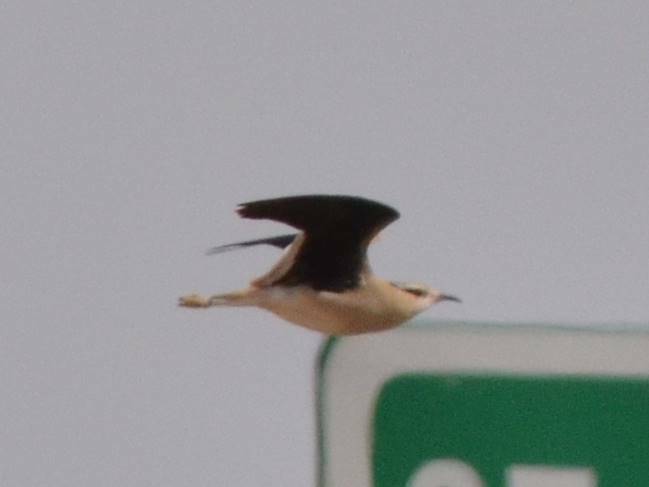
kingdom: Animalia
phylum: Chordata
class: Aves
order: Charadriiformes
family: Glareolidae
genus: Cursorius
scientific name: Cursorius cursor
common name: Cream-colored courser
